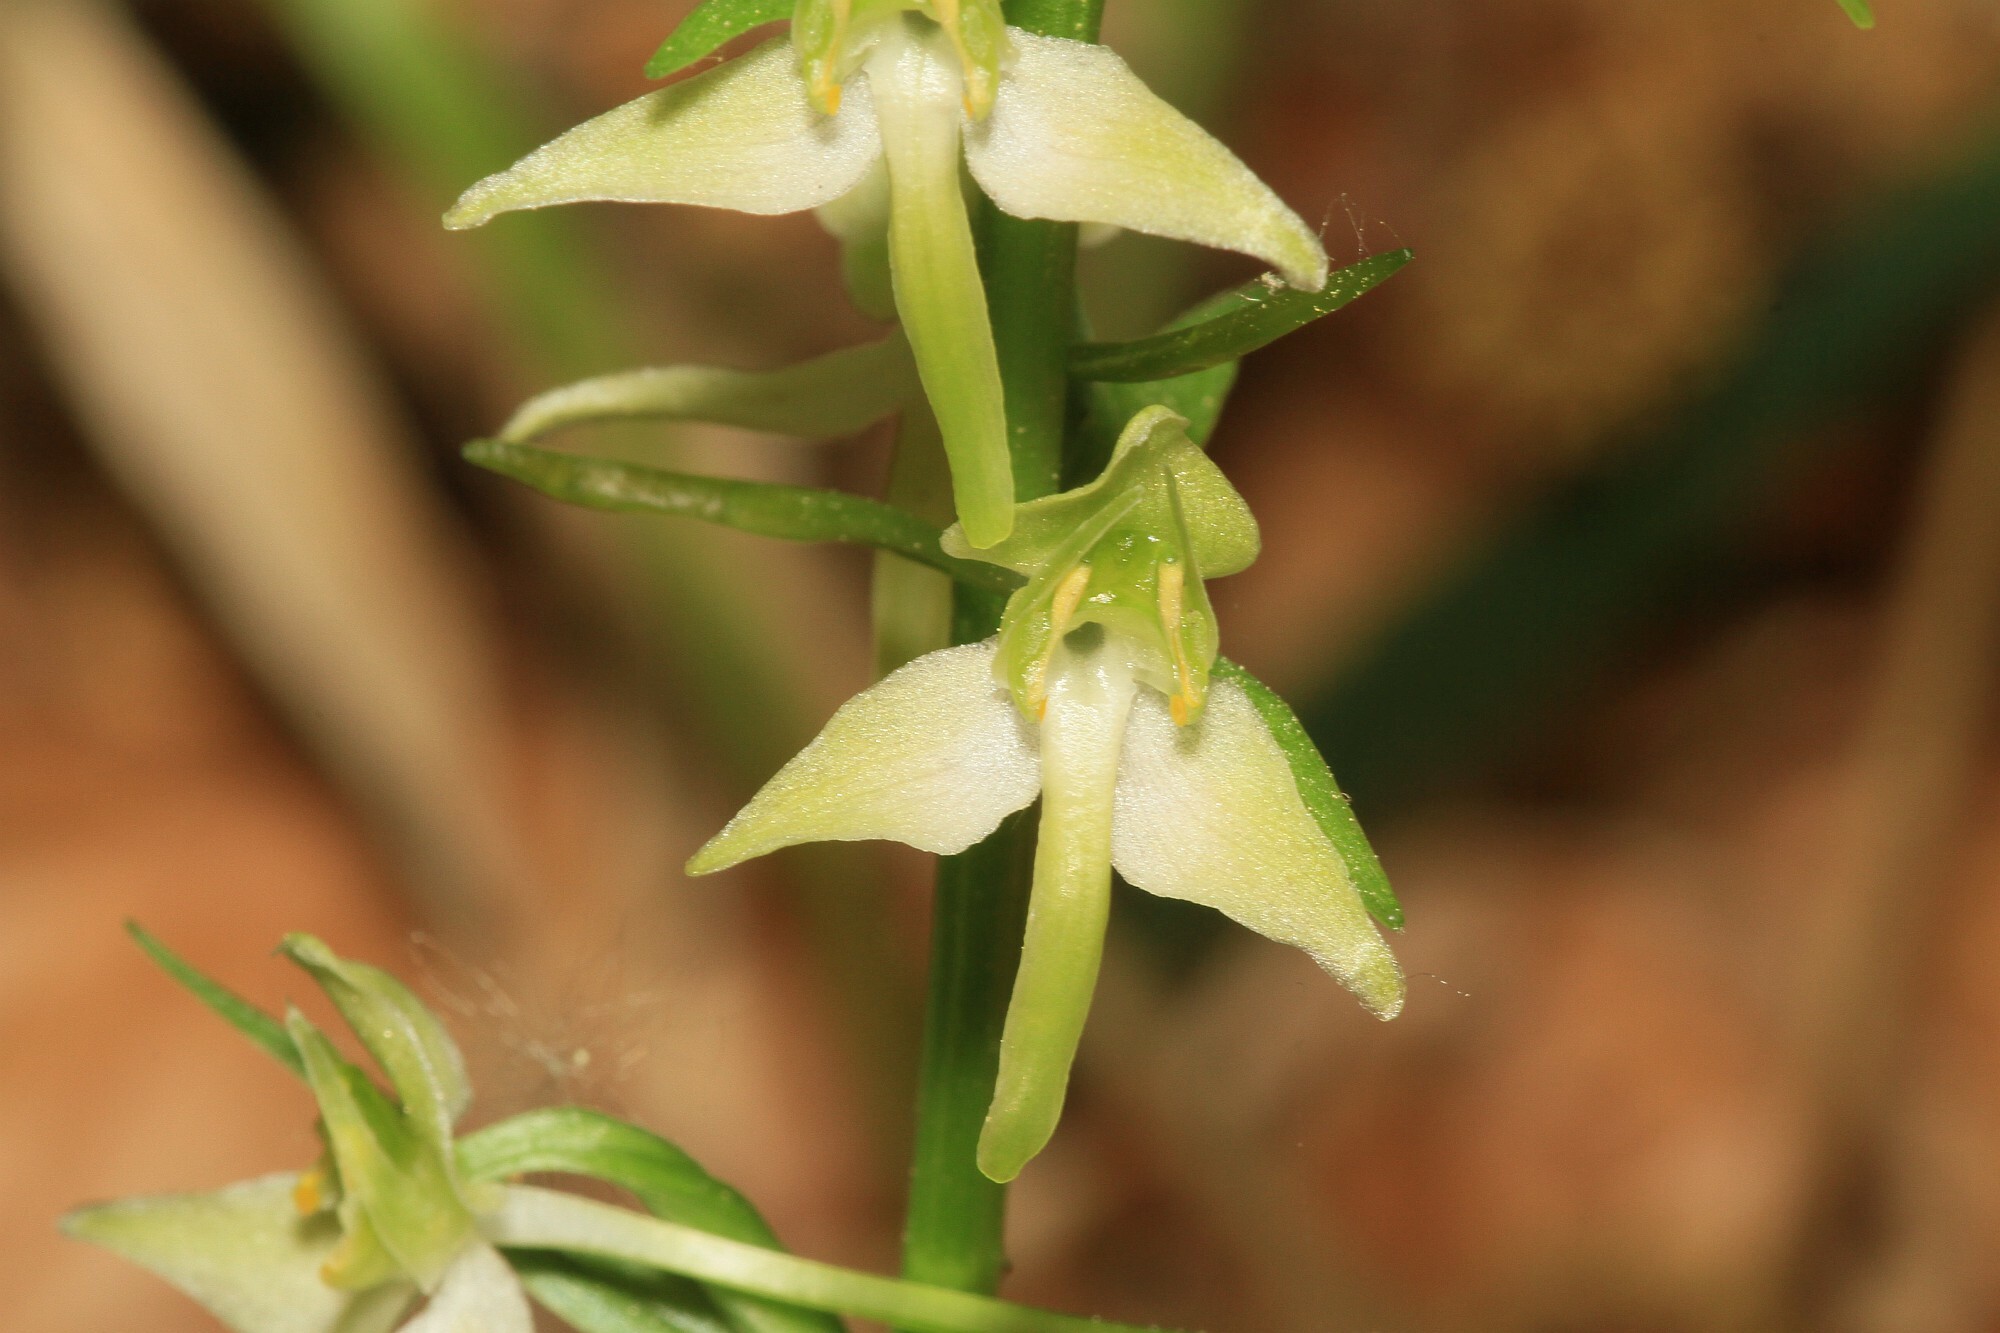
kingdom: Plantae
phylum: Tracheophyta
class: Liliopsida
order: Asparagales
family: Orchidaceae
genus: Platanthera
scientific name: Platanthera chlorantha
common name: Greater butterfly-orchid
